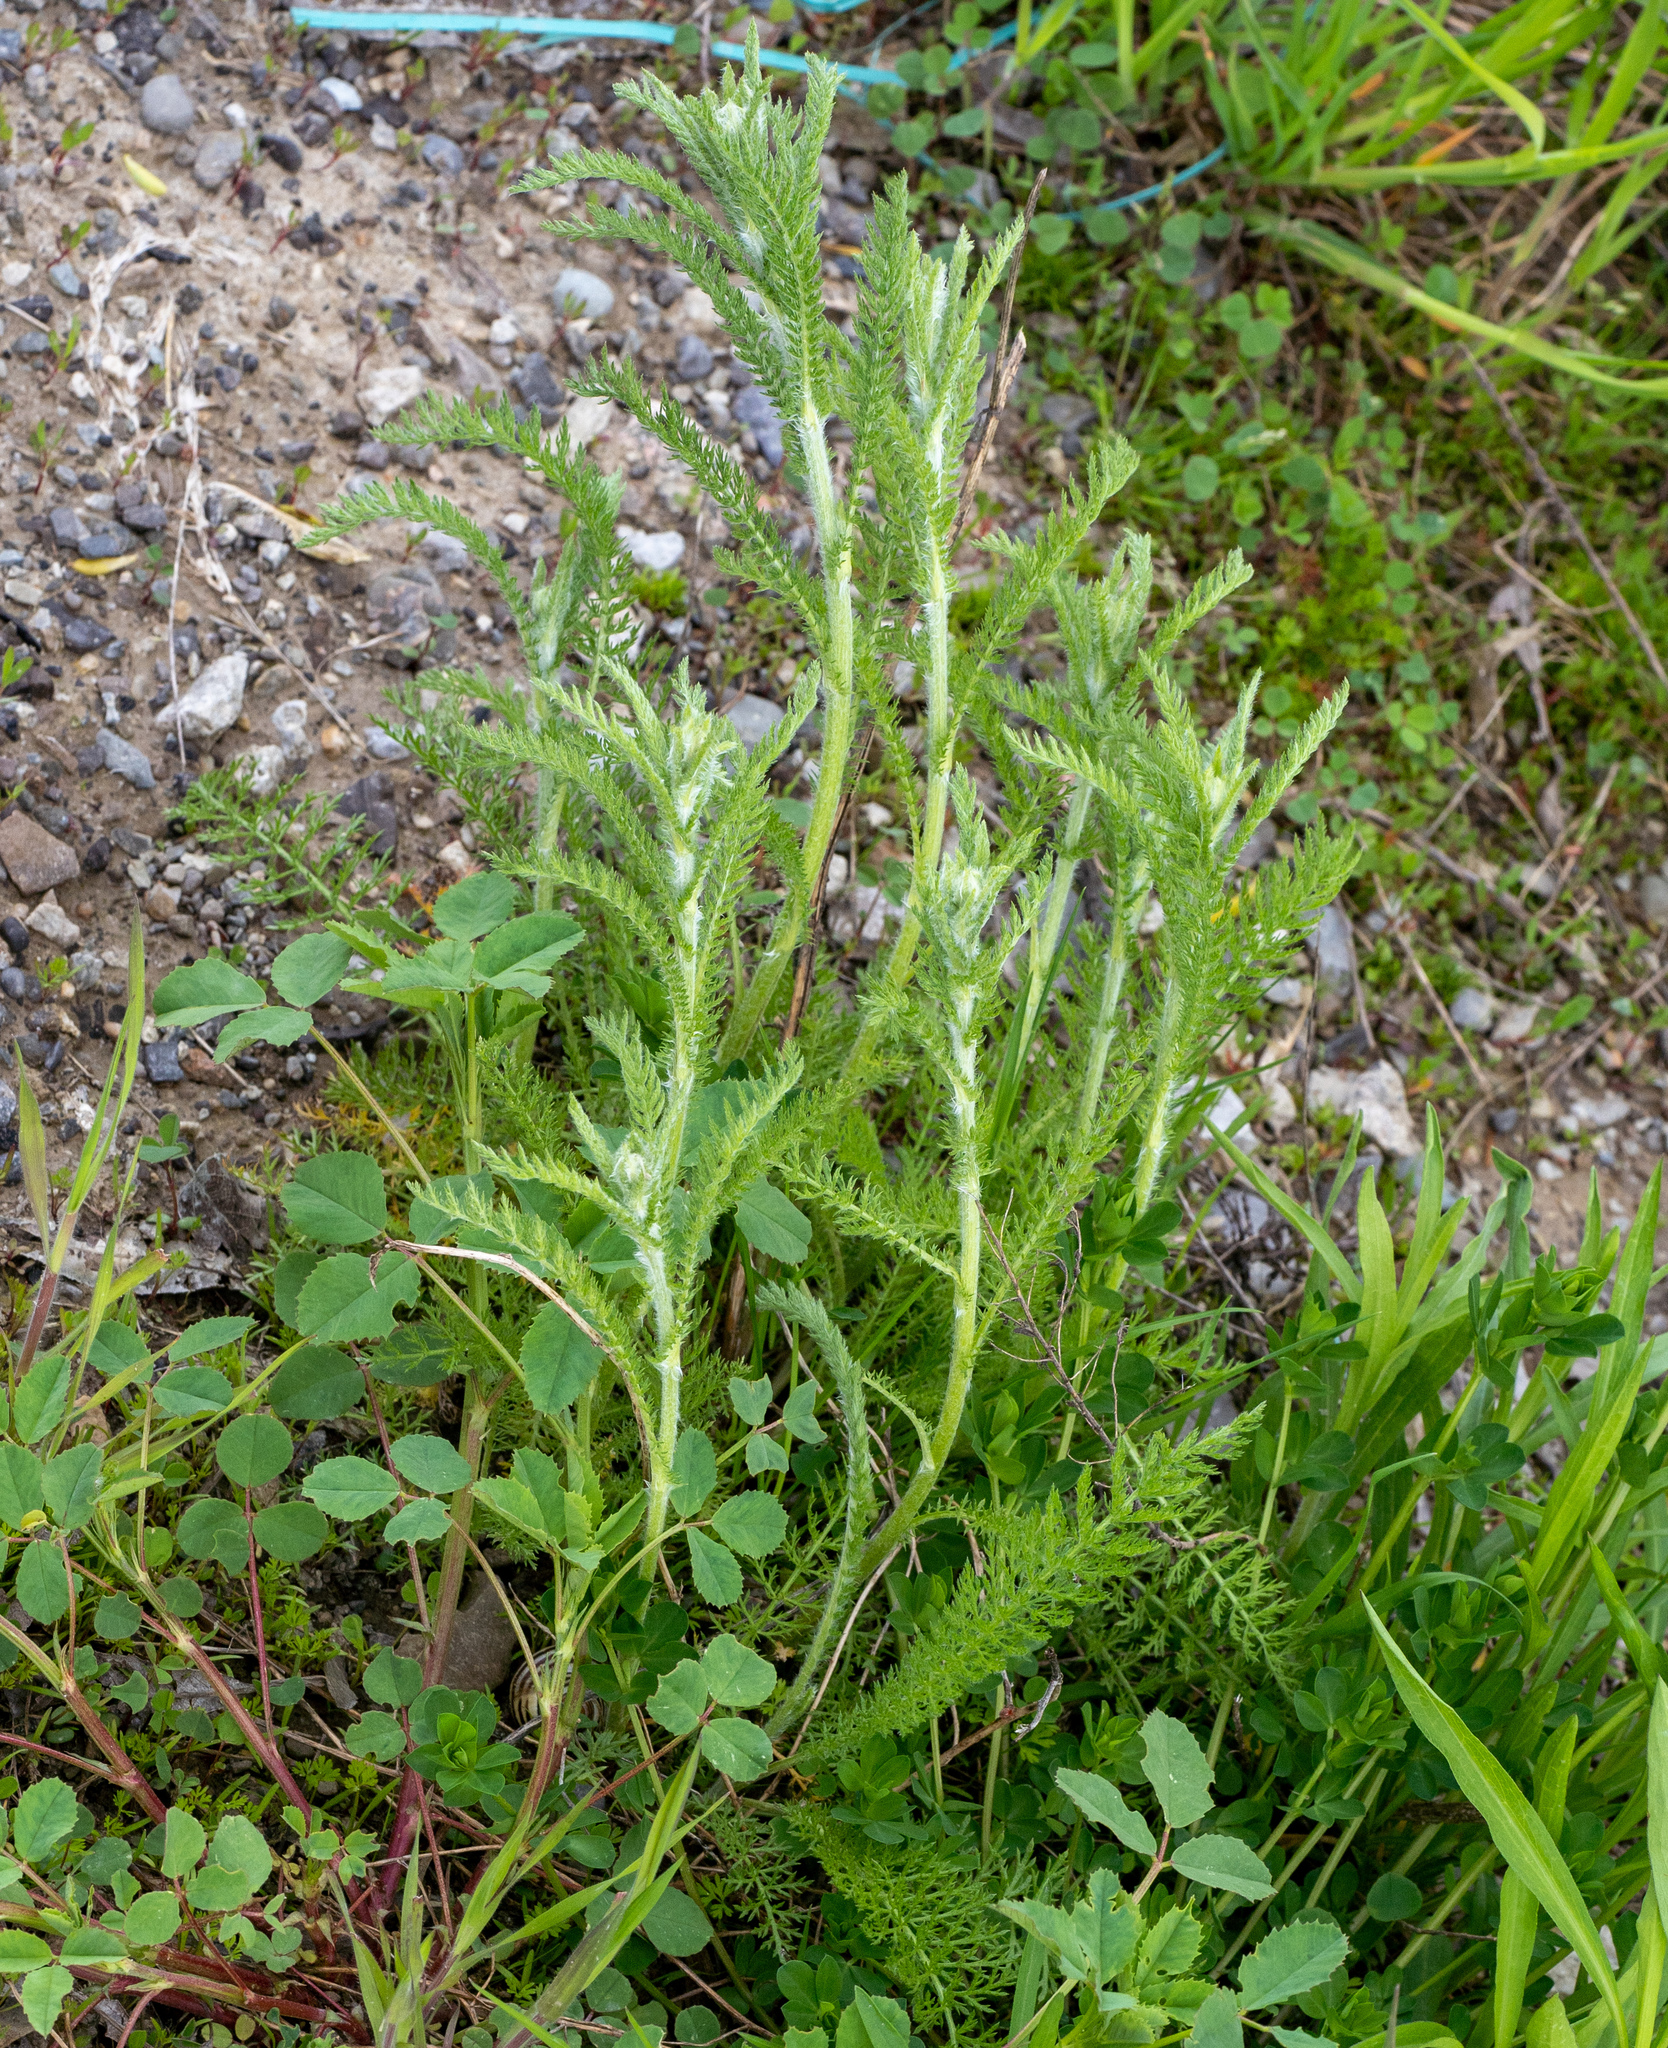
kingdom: Plantae
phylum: Tracheophyta
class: Magnoliopsida
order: Asterales
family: Asteraceae
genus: Achillea
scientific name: Achillea millefolium
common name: Yarrow
